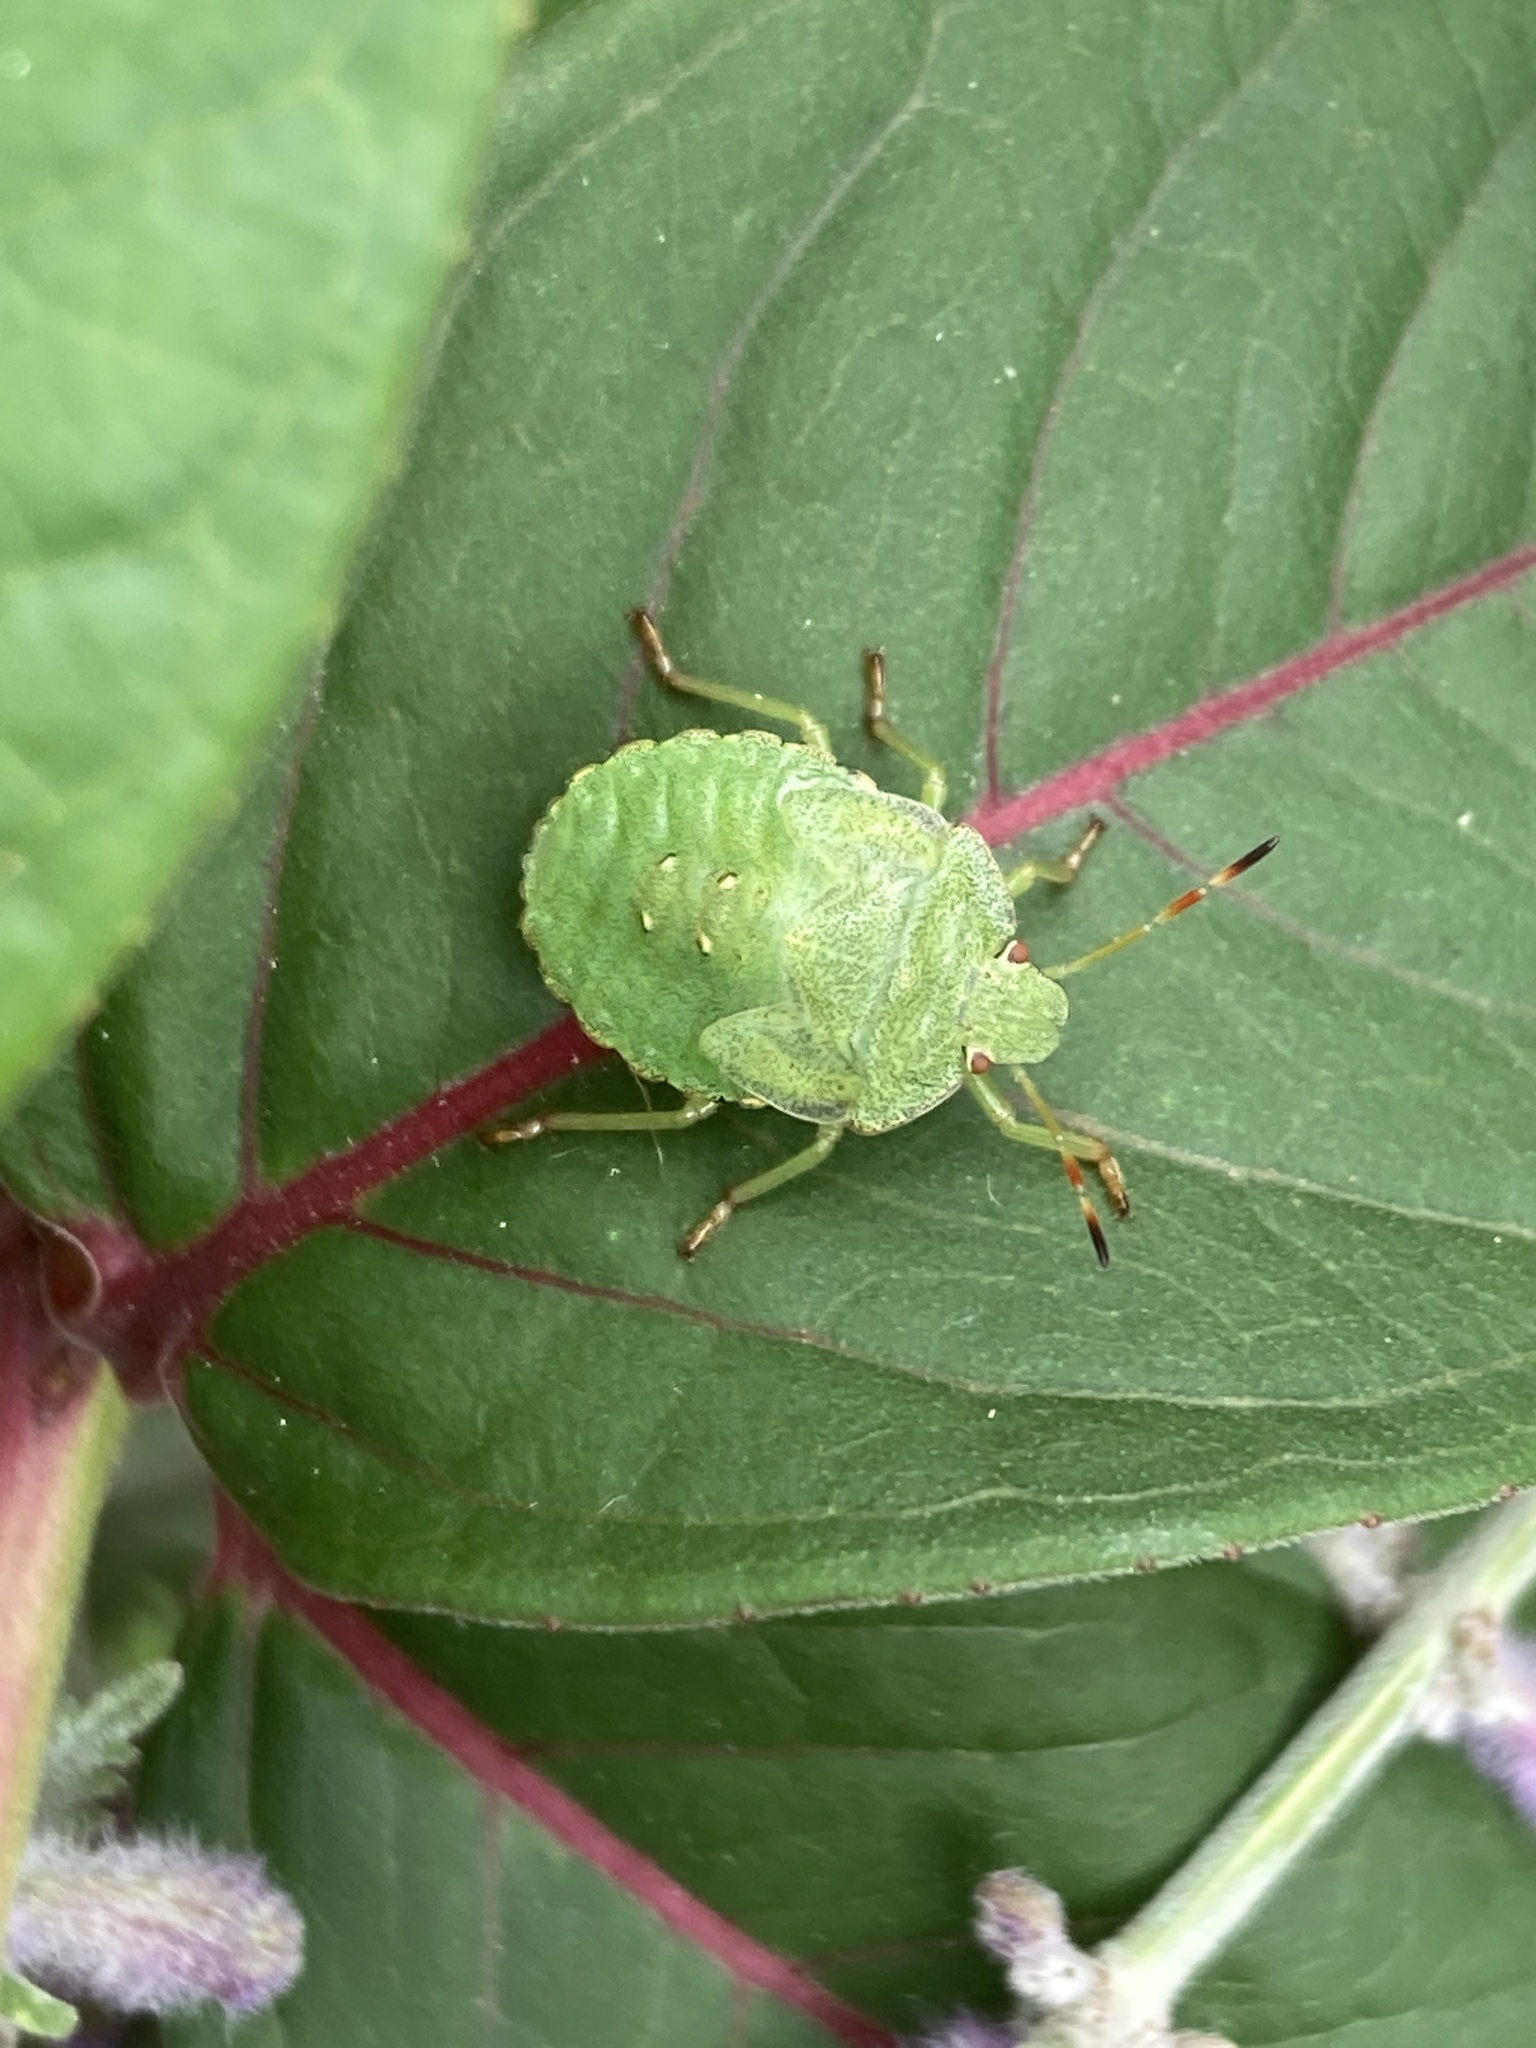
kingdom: Animalia
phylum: Arthropoda
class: Insecta
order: Hemiptera
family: Pentatomidae
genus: Palomena
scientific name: Palomena prasina
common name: Green shieldbug
